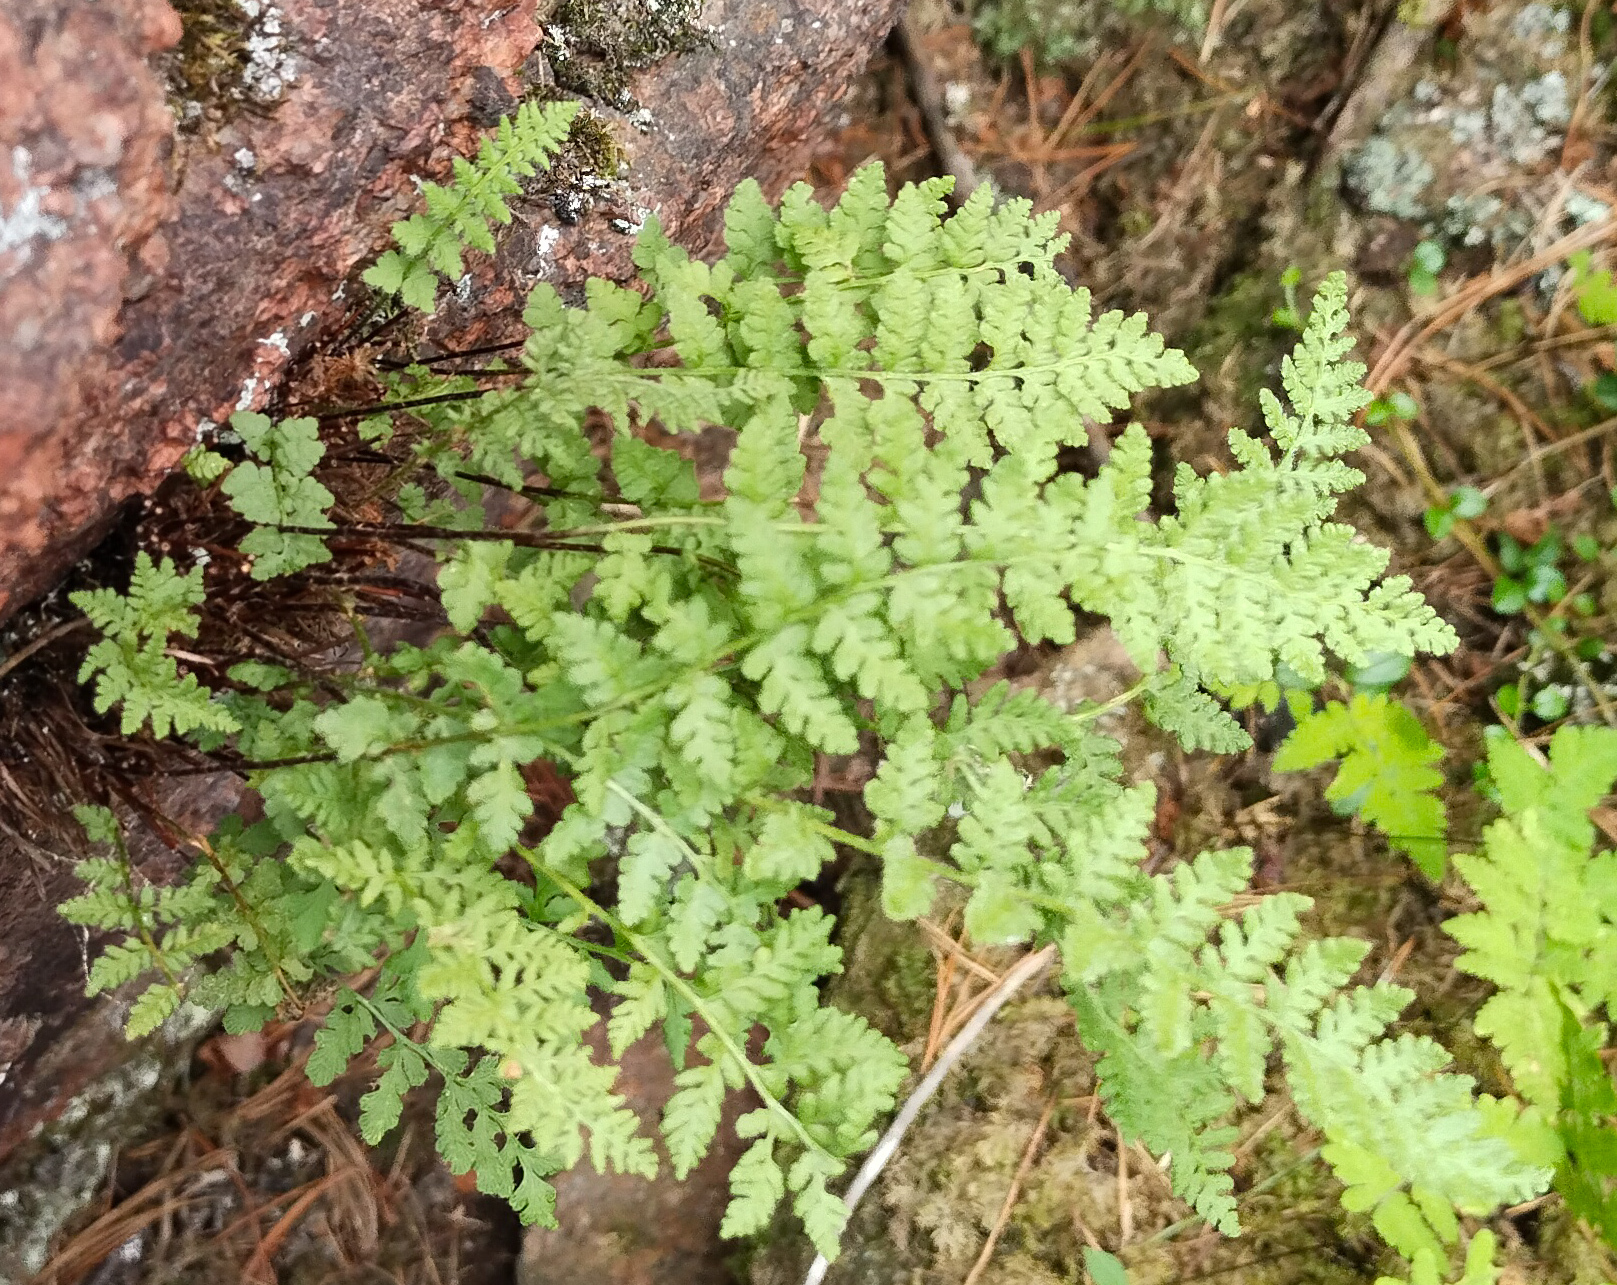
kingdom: Plantae
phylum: Tracheophyta
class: Polypodiopsida
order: Polypodiales
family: Cystopteridaceae
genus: Cystopteris
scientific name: Cystopteris fragilis
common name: Brittle bladder fern
